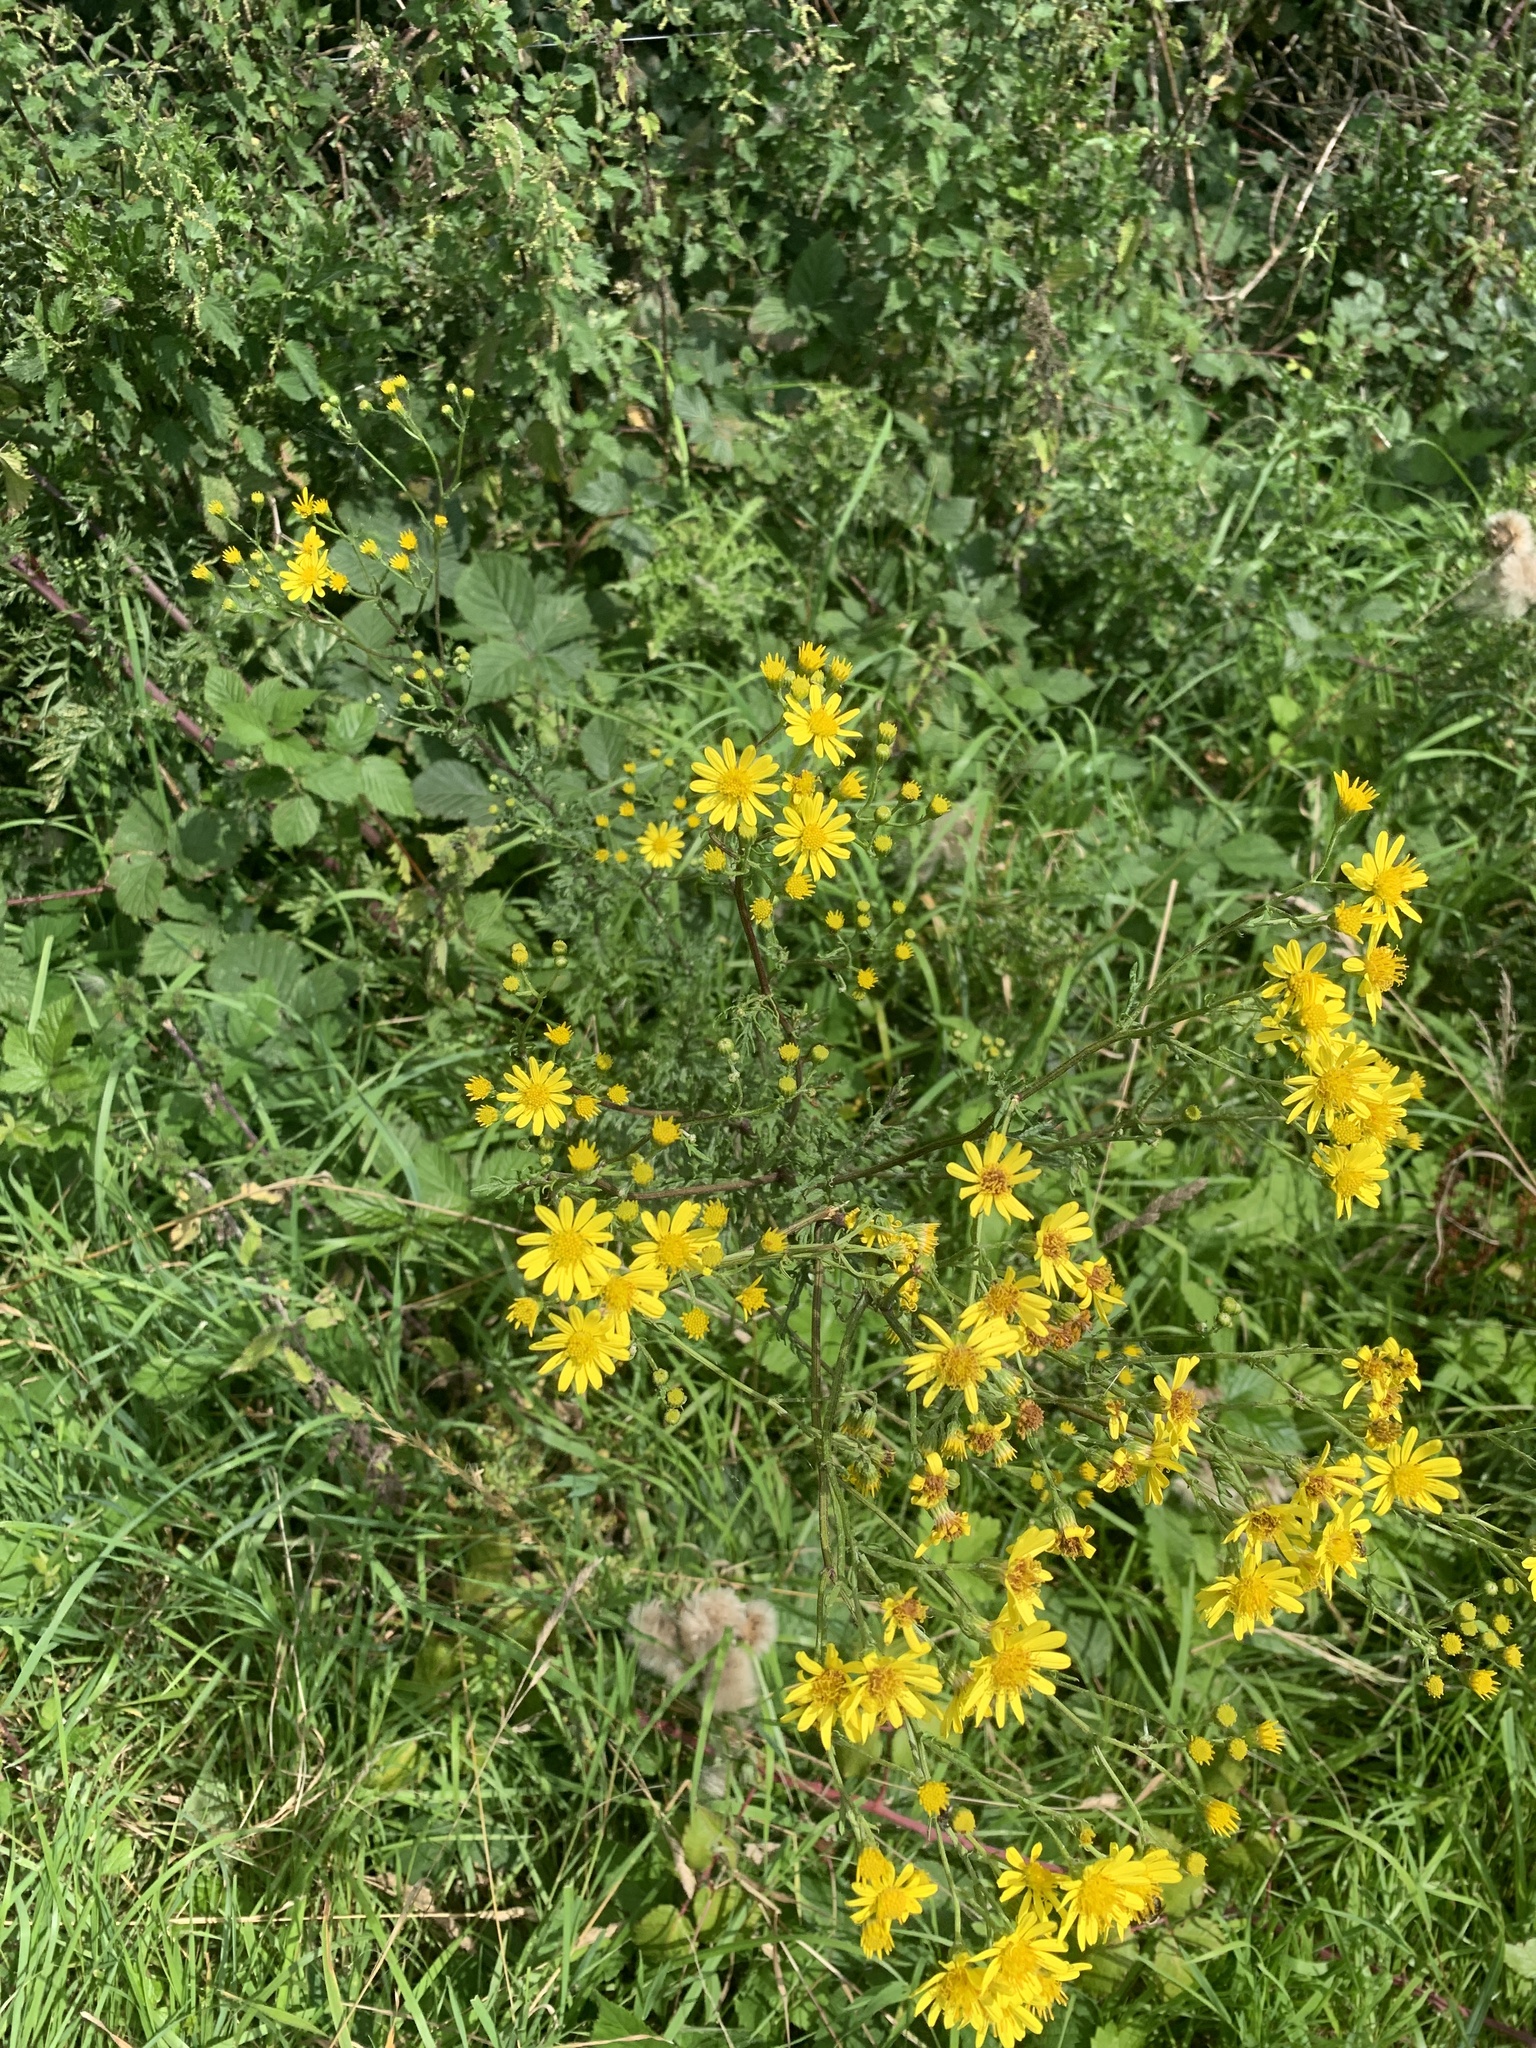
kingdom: Plantae
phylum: Tracheophyta
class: Magnoliopsida
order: Asterales
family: Asteraceae
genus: Jacobaea
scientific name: Jacobaea vulgaris
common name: Stinking willie
